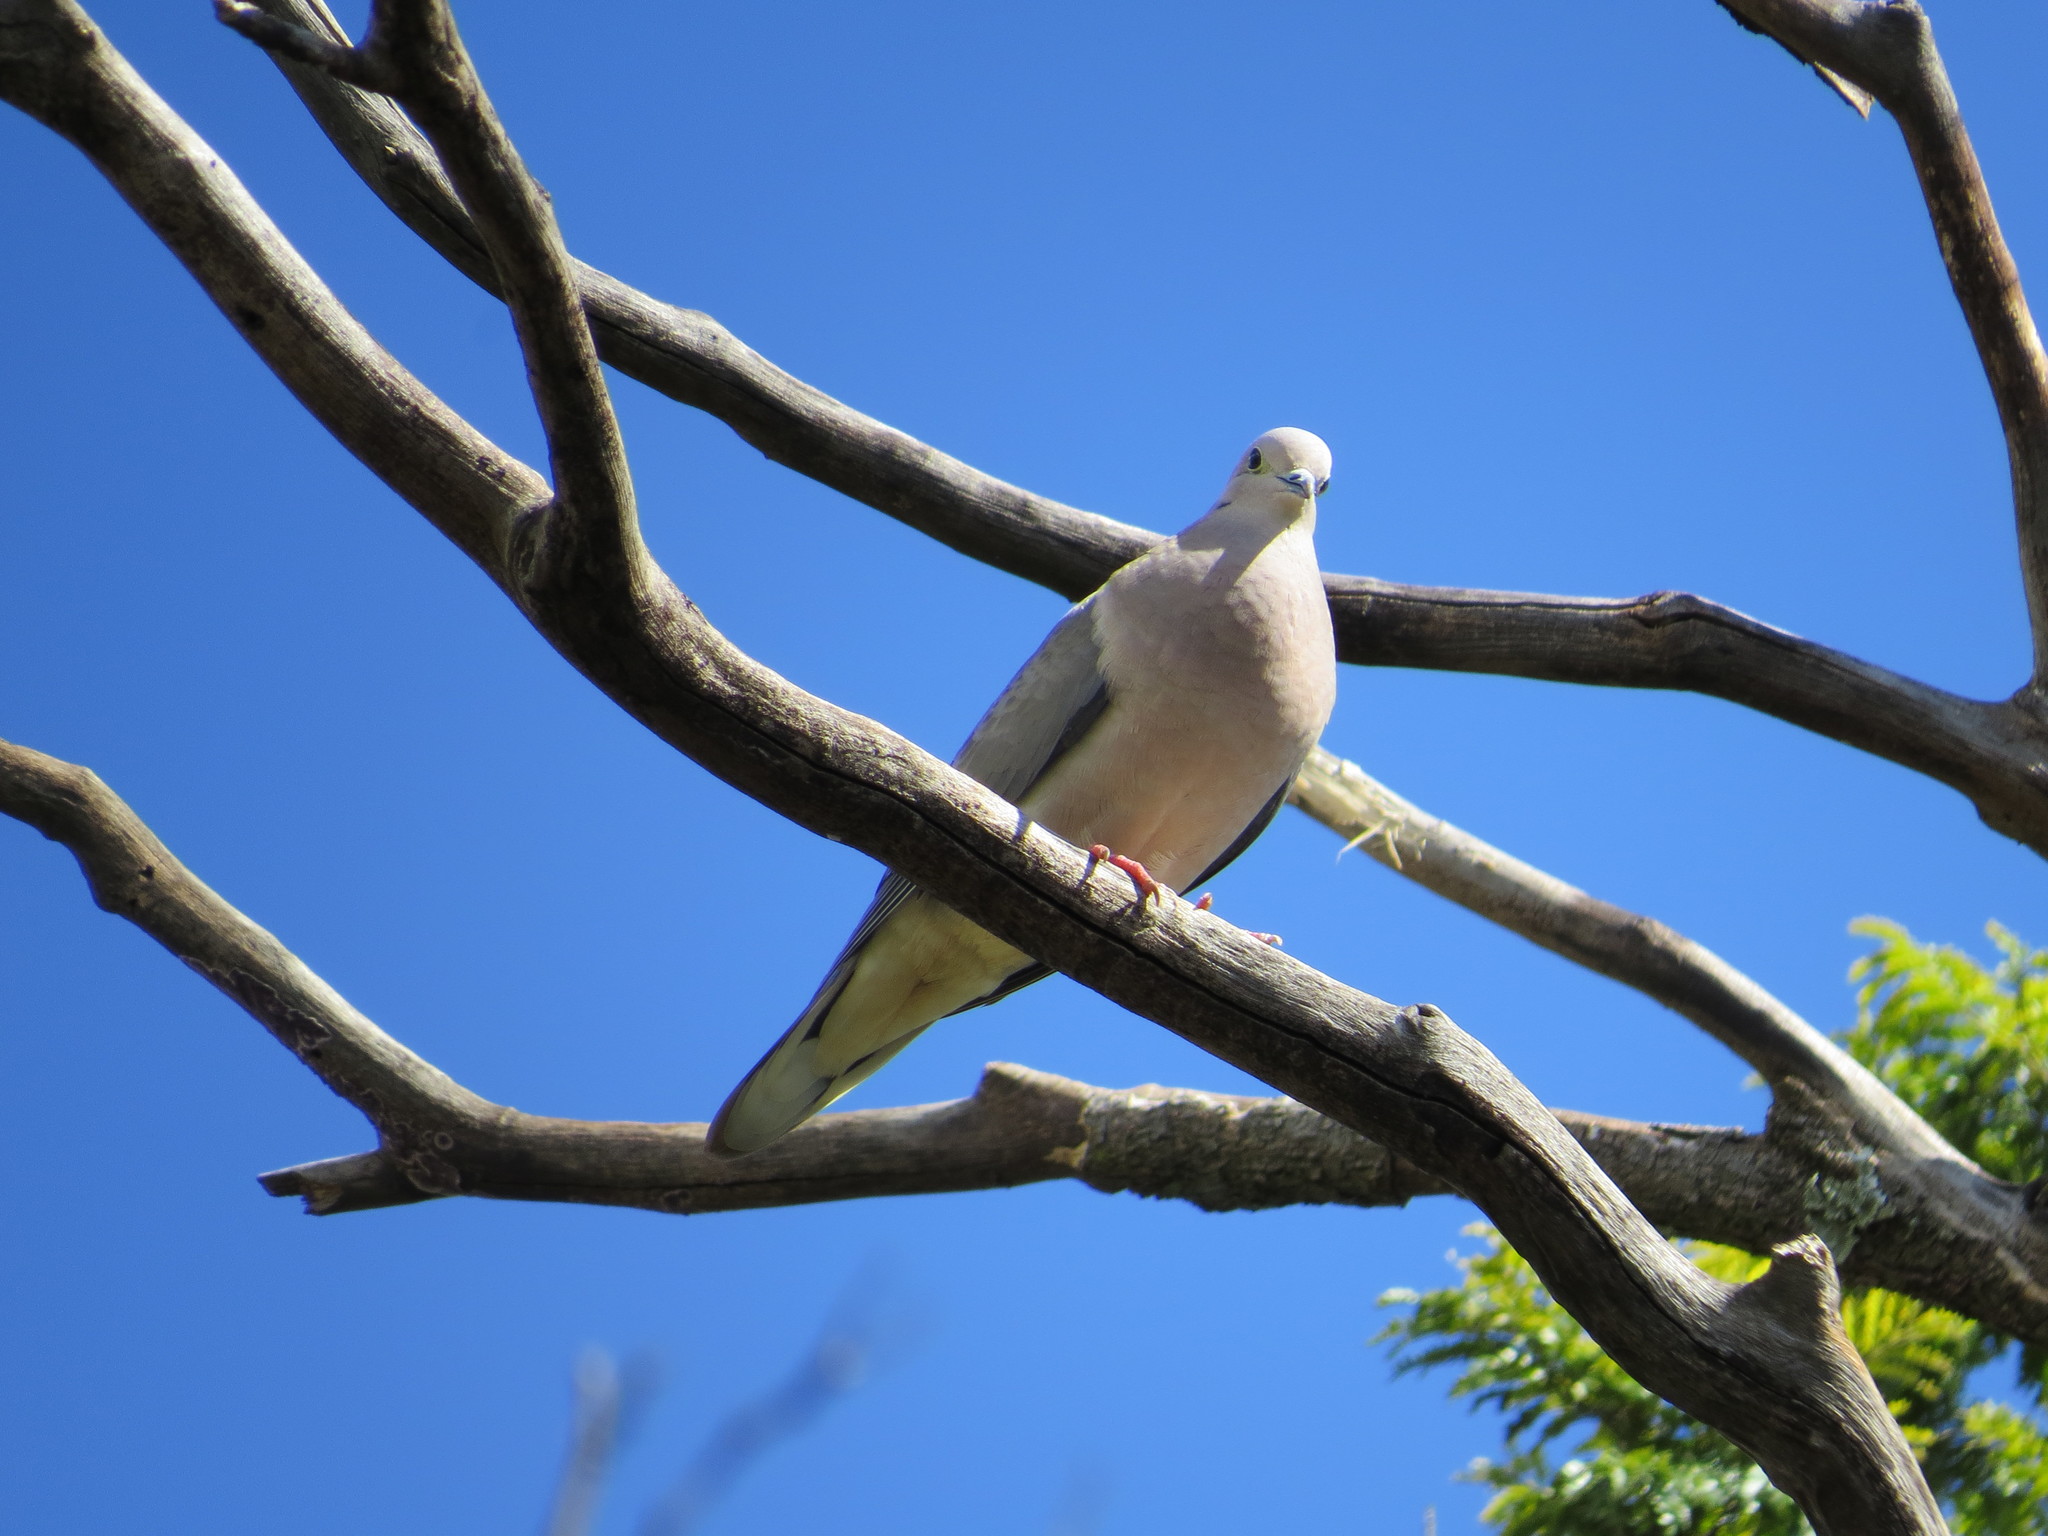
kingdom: Animalia
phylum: Chordata
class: Aves
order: Columbiformes
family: Columbidae
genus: Zenaida
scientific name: Zenaida auriculata
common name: Eared dove
